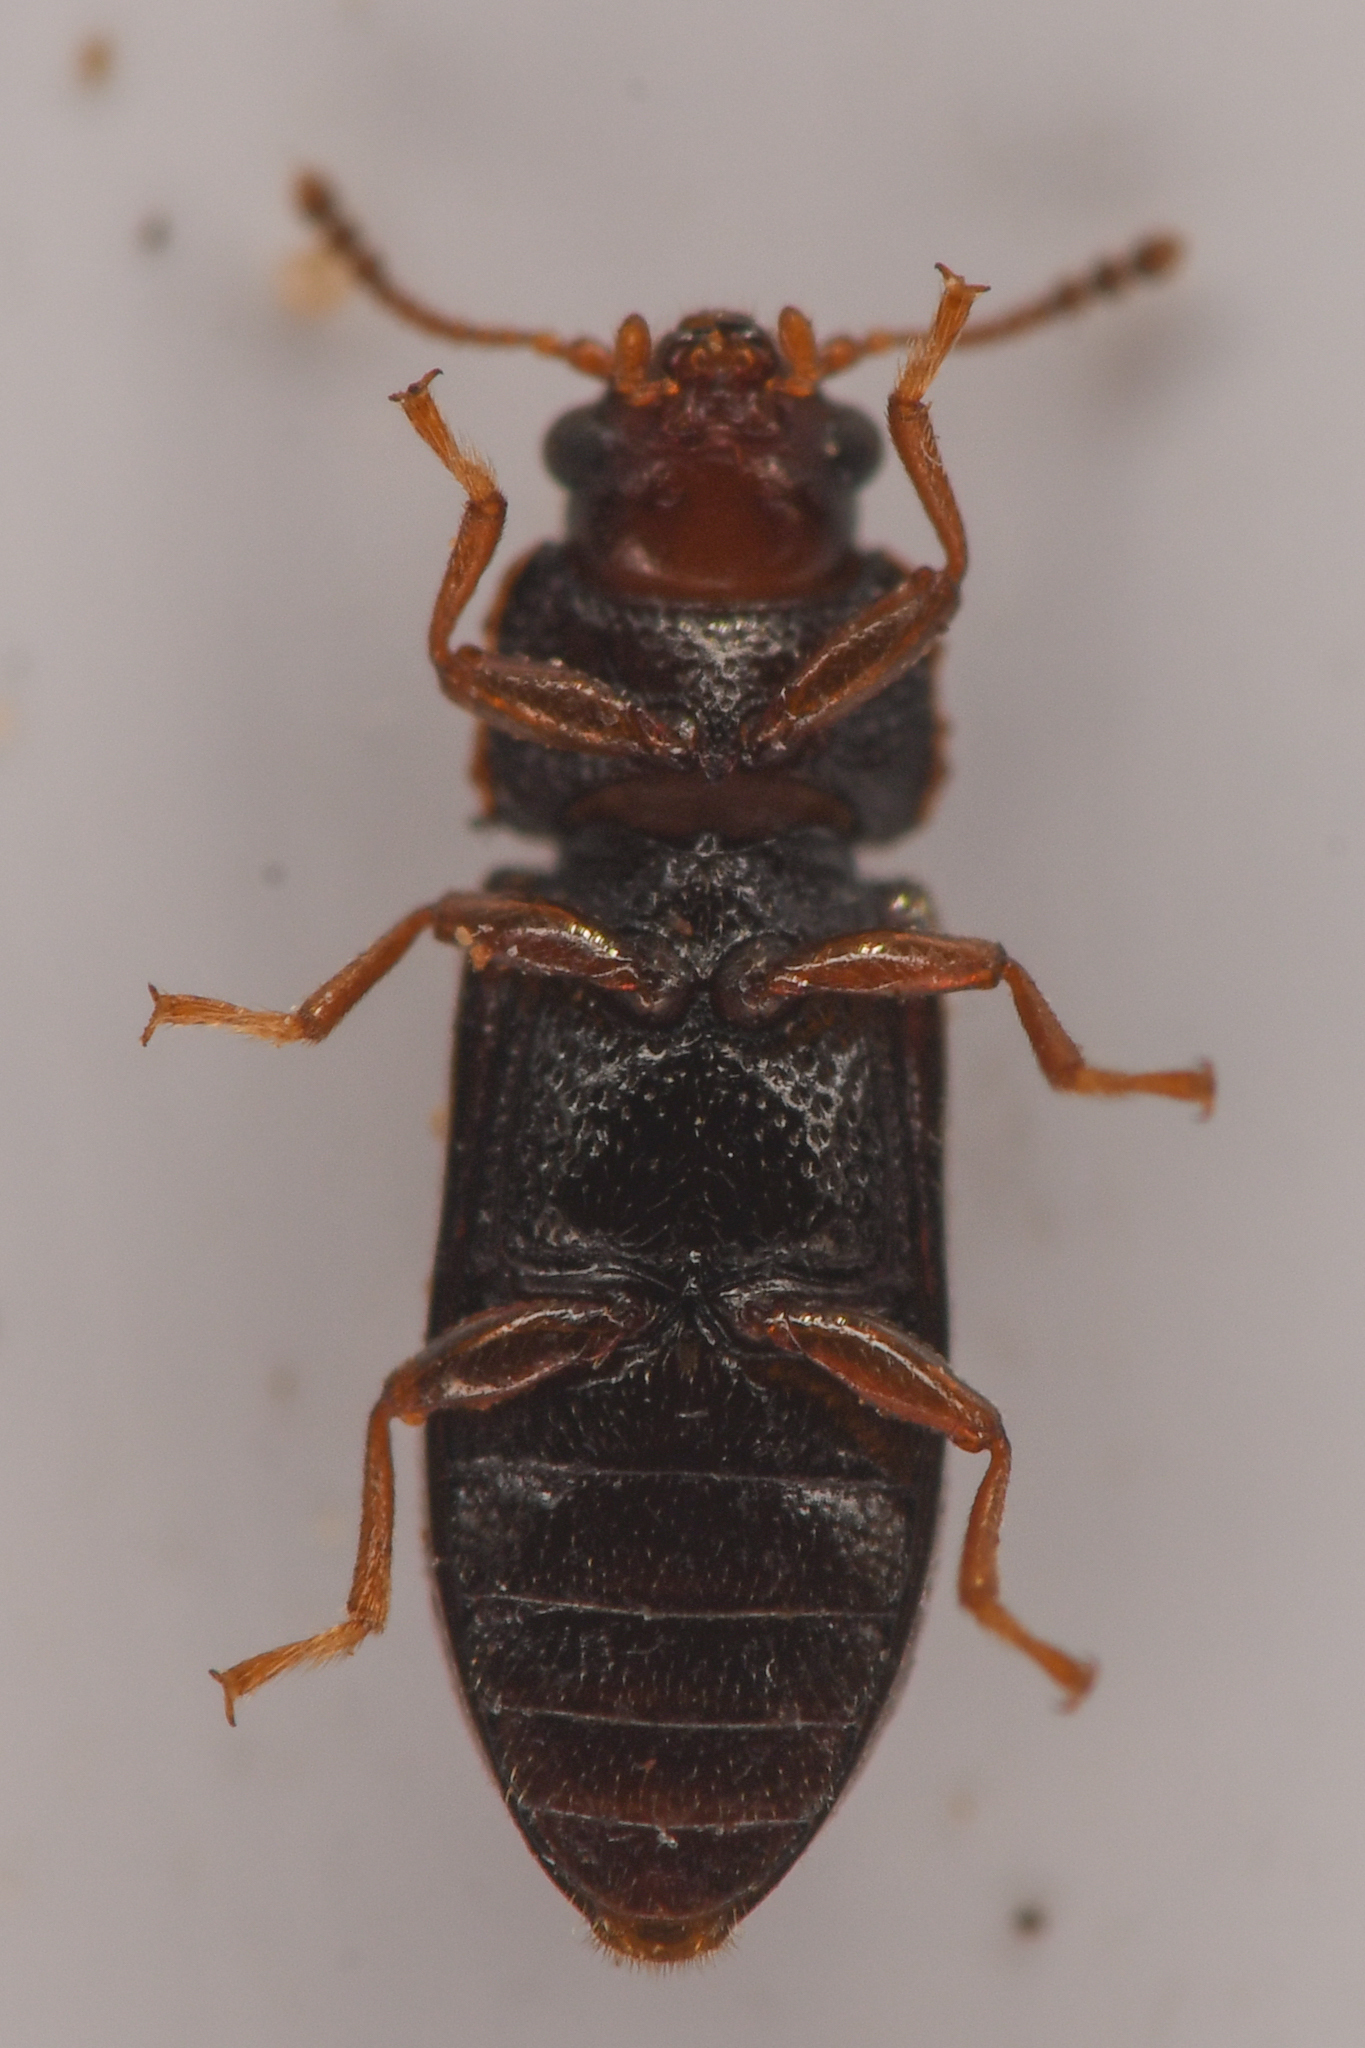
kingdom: Animalia
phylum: Arthropoda
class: Insecta
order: Coleoptera
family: Ciidae
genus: Sphindocis
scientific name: Sphindocis denticollis
